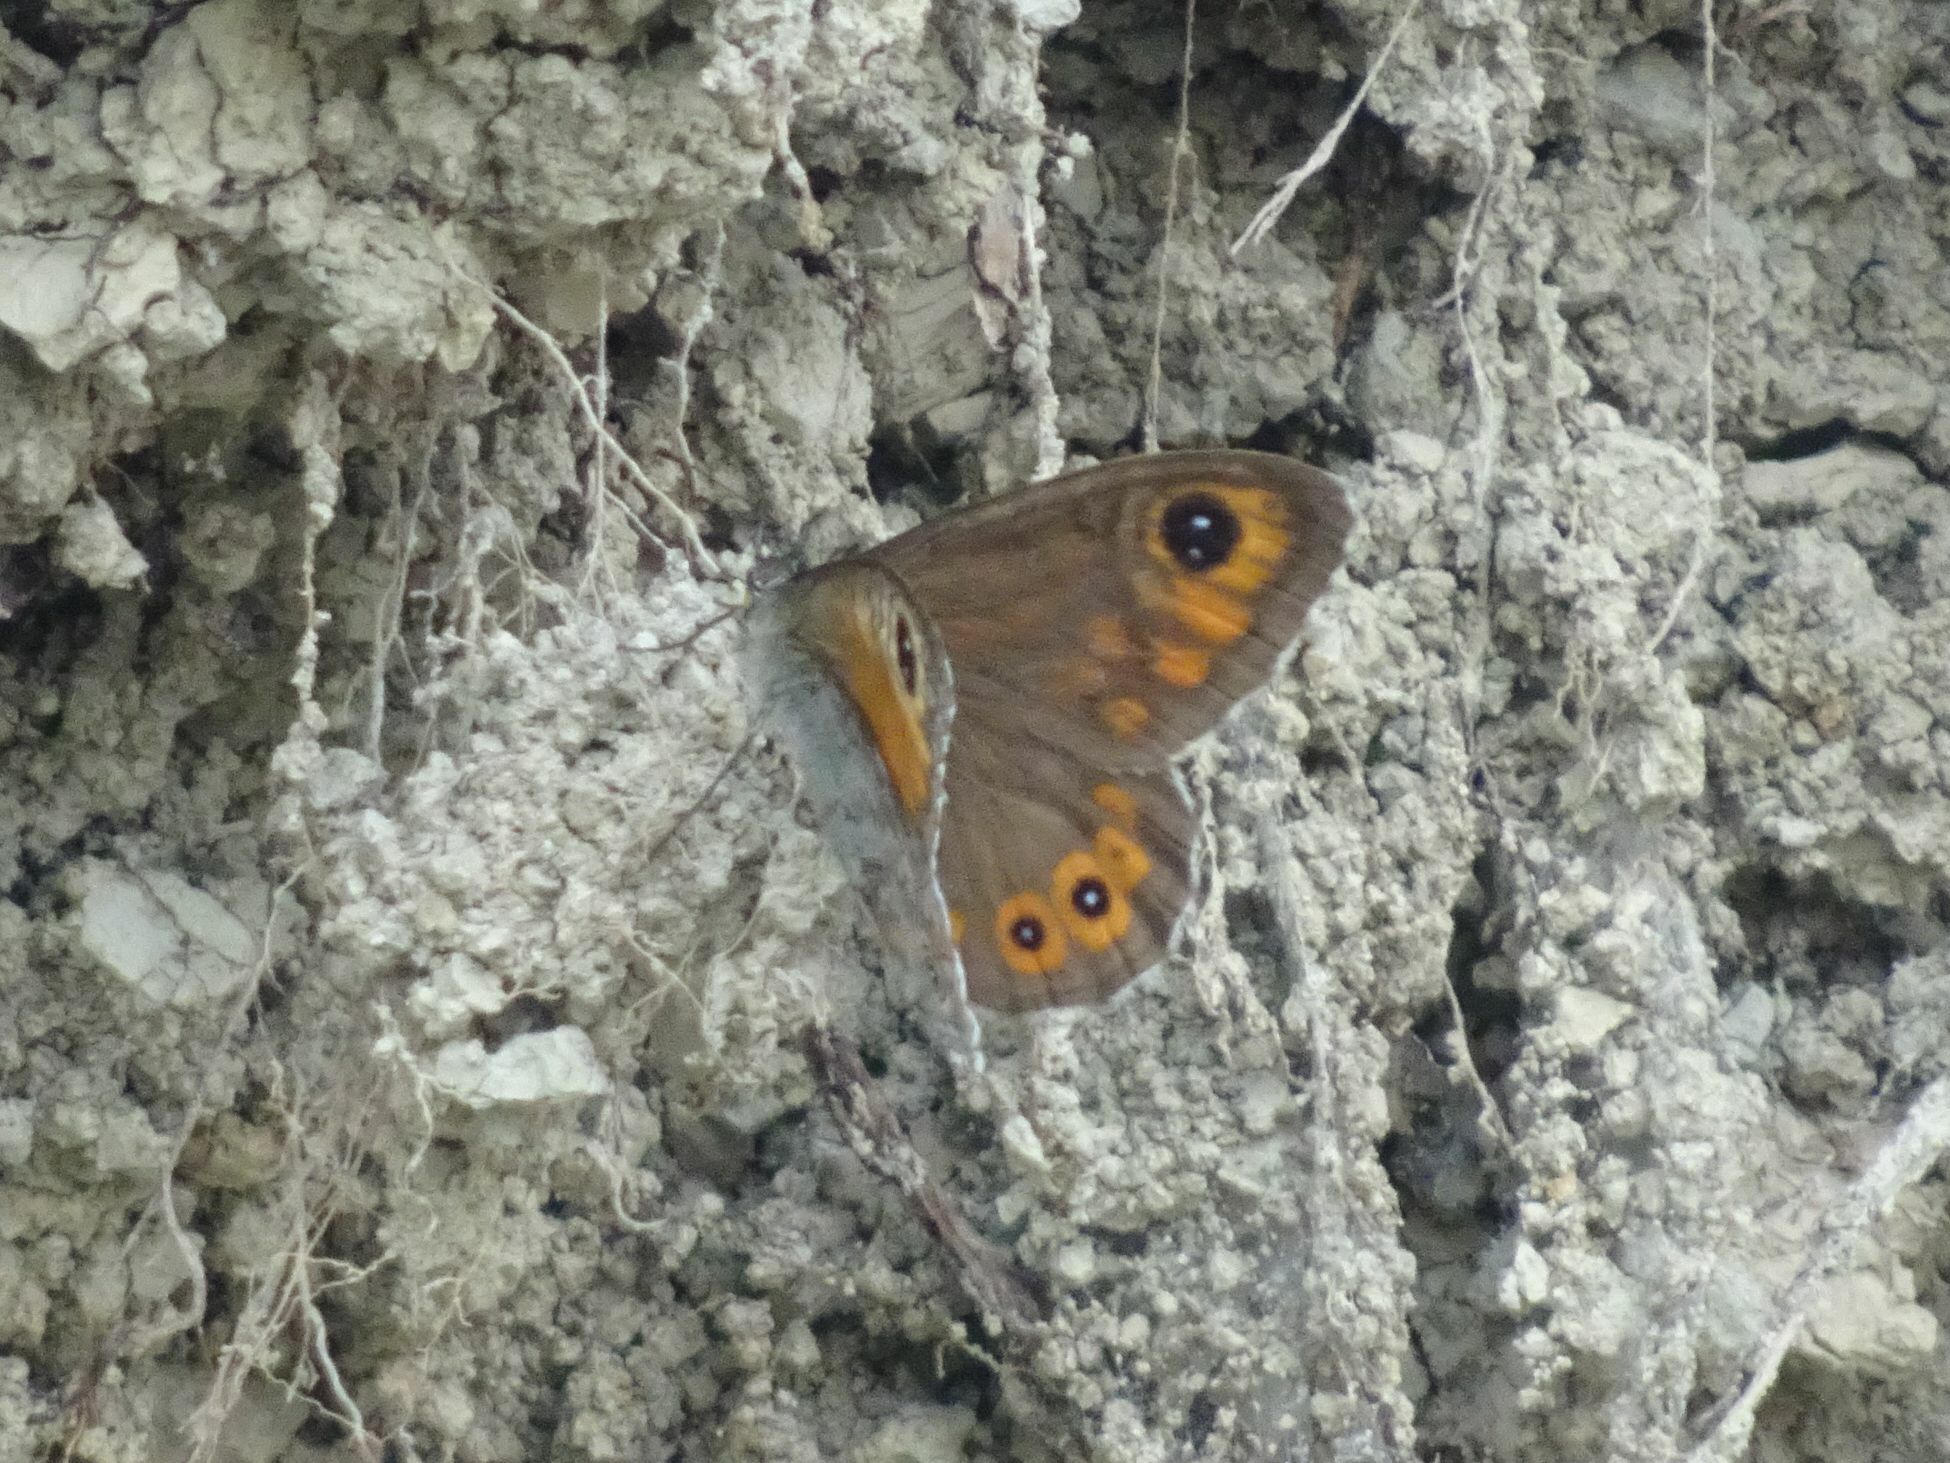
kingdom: Animalia
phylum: Arthropoda
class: Insecta
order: Lepidoptera
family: Nymphalidae
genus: Pararge
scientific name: Pararge Lasiommata maera
